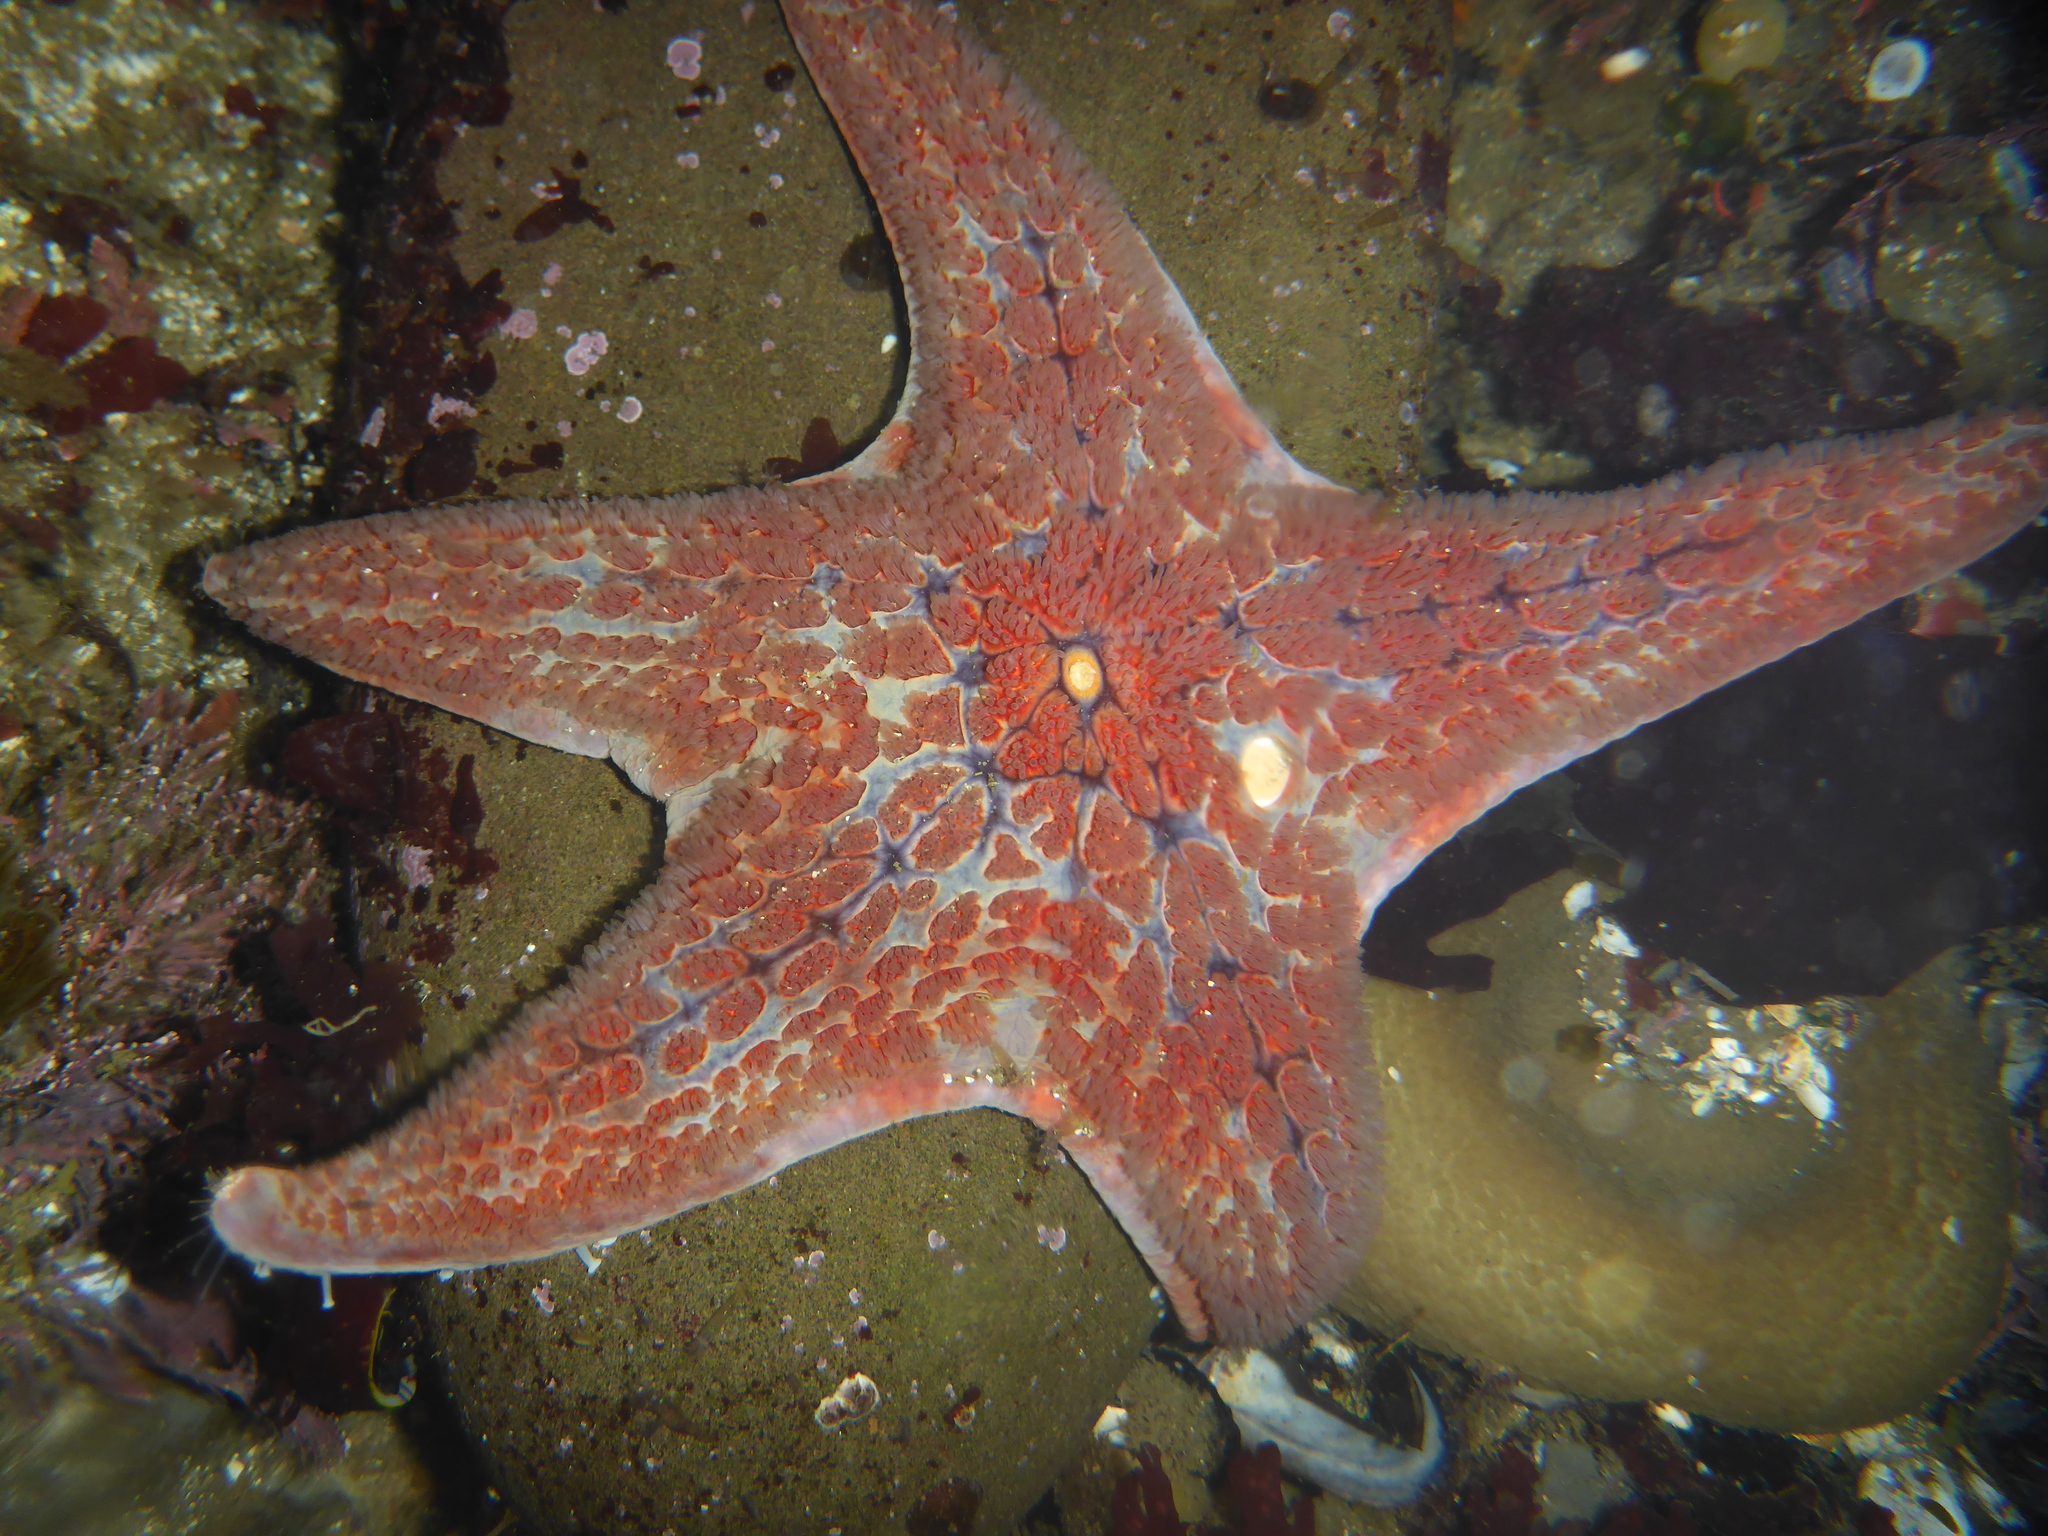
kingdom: Animalia
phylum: Echinodermata
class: Asteroidea
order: Valvatida
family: Asteropseidae
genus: Dermasterias
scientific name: Dermasterias imbricata
